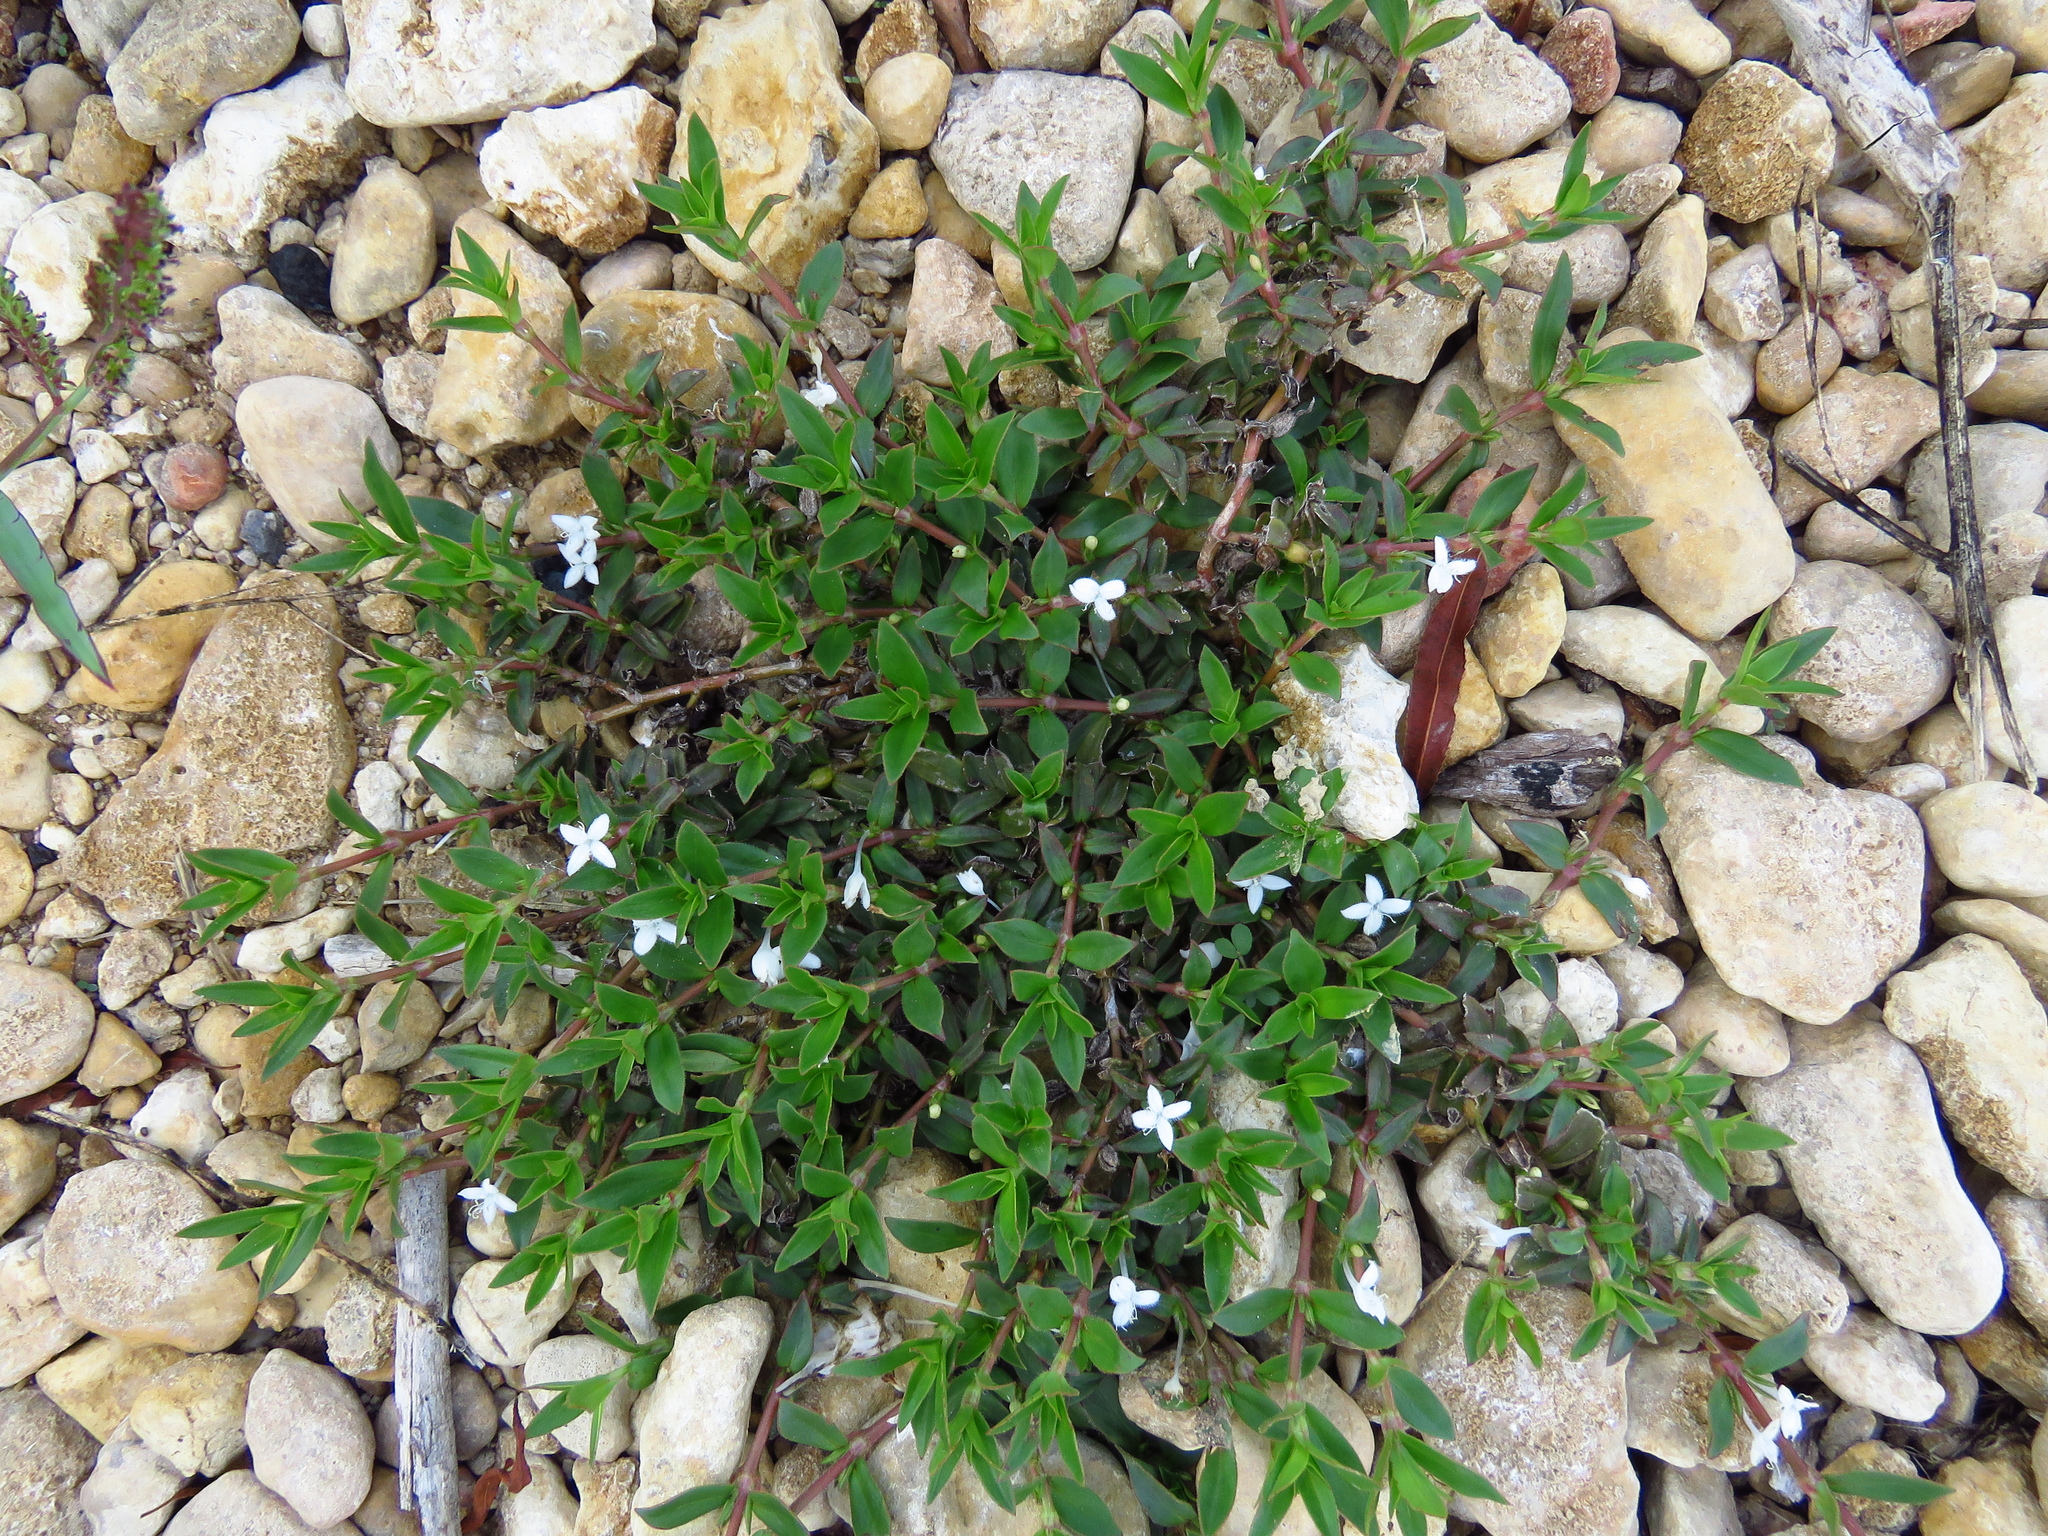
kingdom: Plantae
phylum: Tracheophyta
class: Magnoliopsida
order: Gentianales
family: Rubiaceae
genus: Diodia
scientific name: Diodia virginiana
